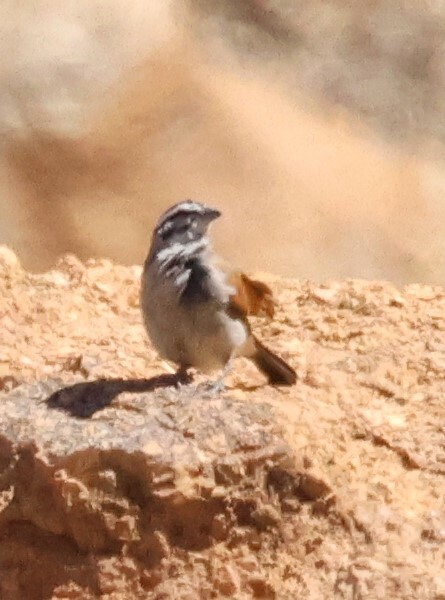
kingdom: Animalia
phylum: Chordata
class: Aves
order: Passeriformes
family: Emberizidae
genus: Emberiza
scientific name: Emberiza capensis
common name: Cape bunting
